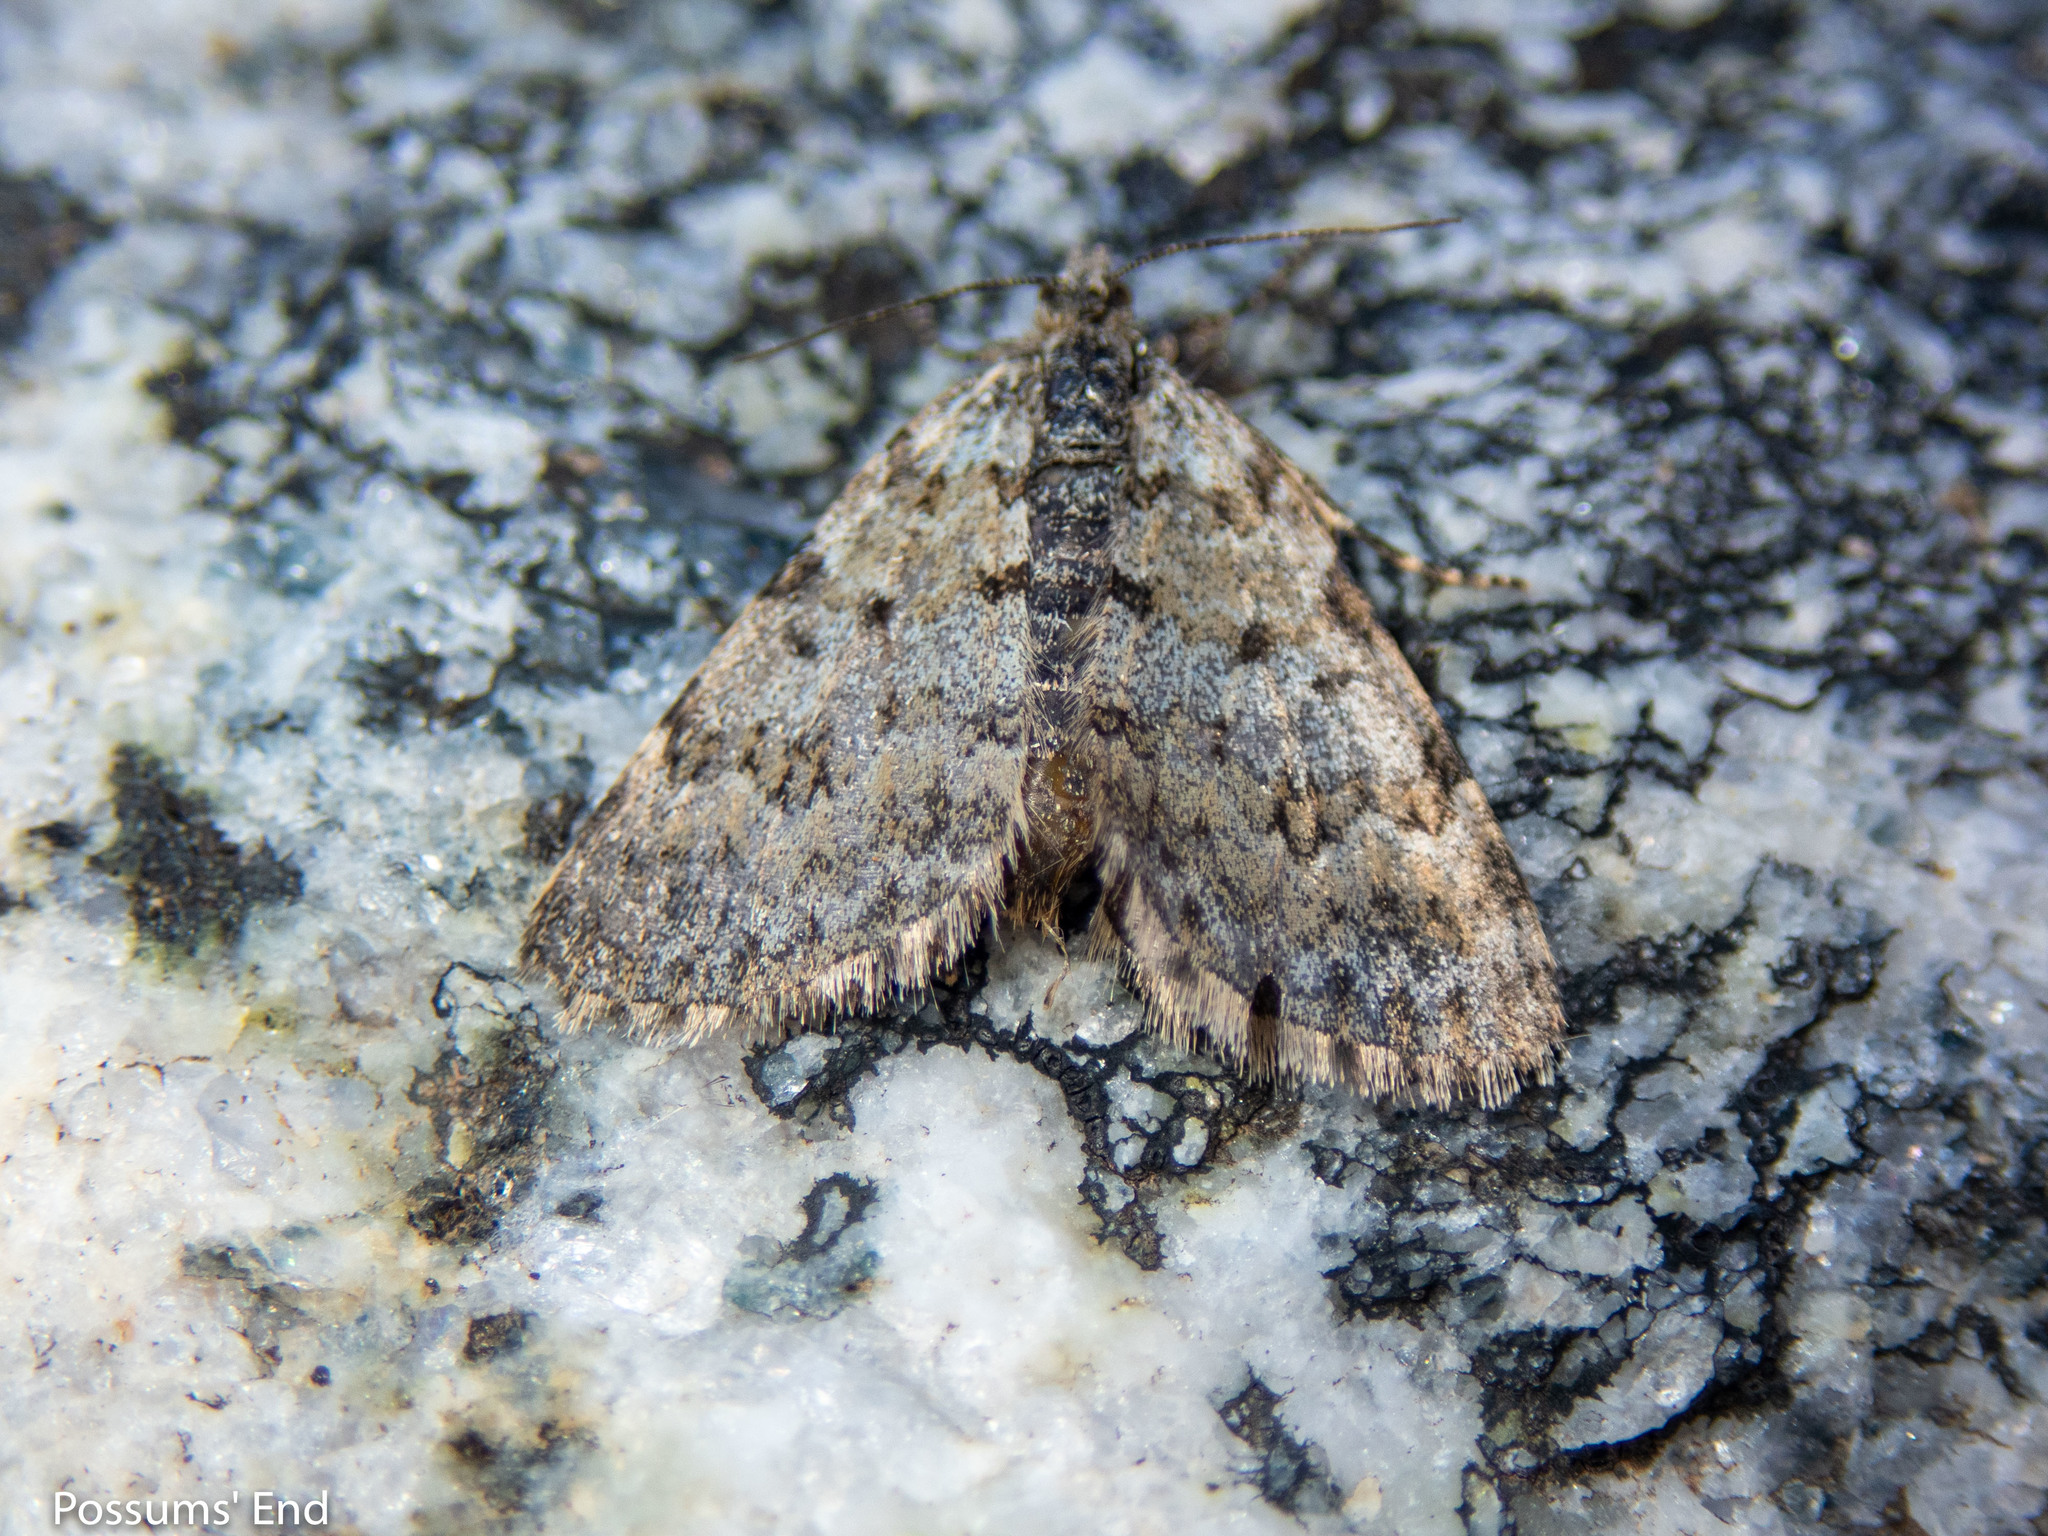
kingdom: Animalia
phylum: Arthropoda
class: Insecta
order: Lepidoptera
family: Geometridae
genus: Asaphodes
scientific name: Asaphodes omichlias
